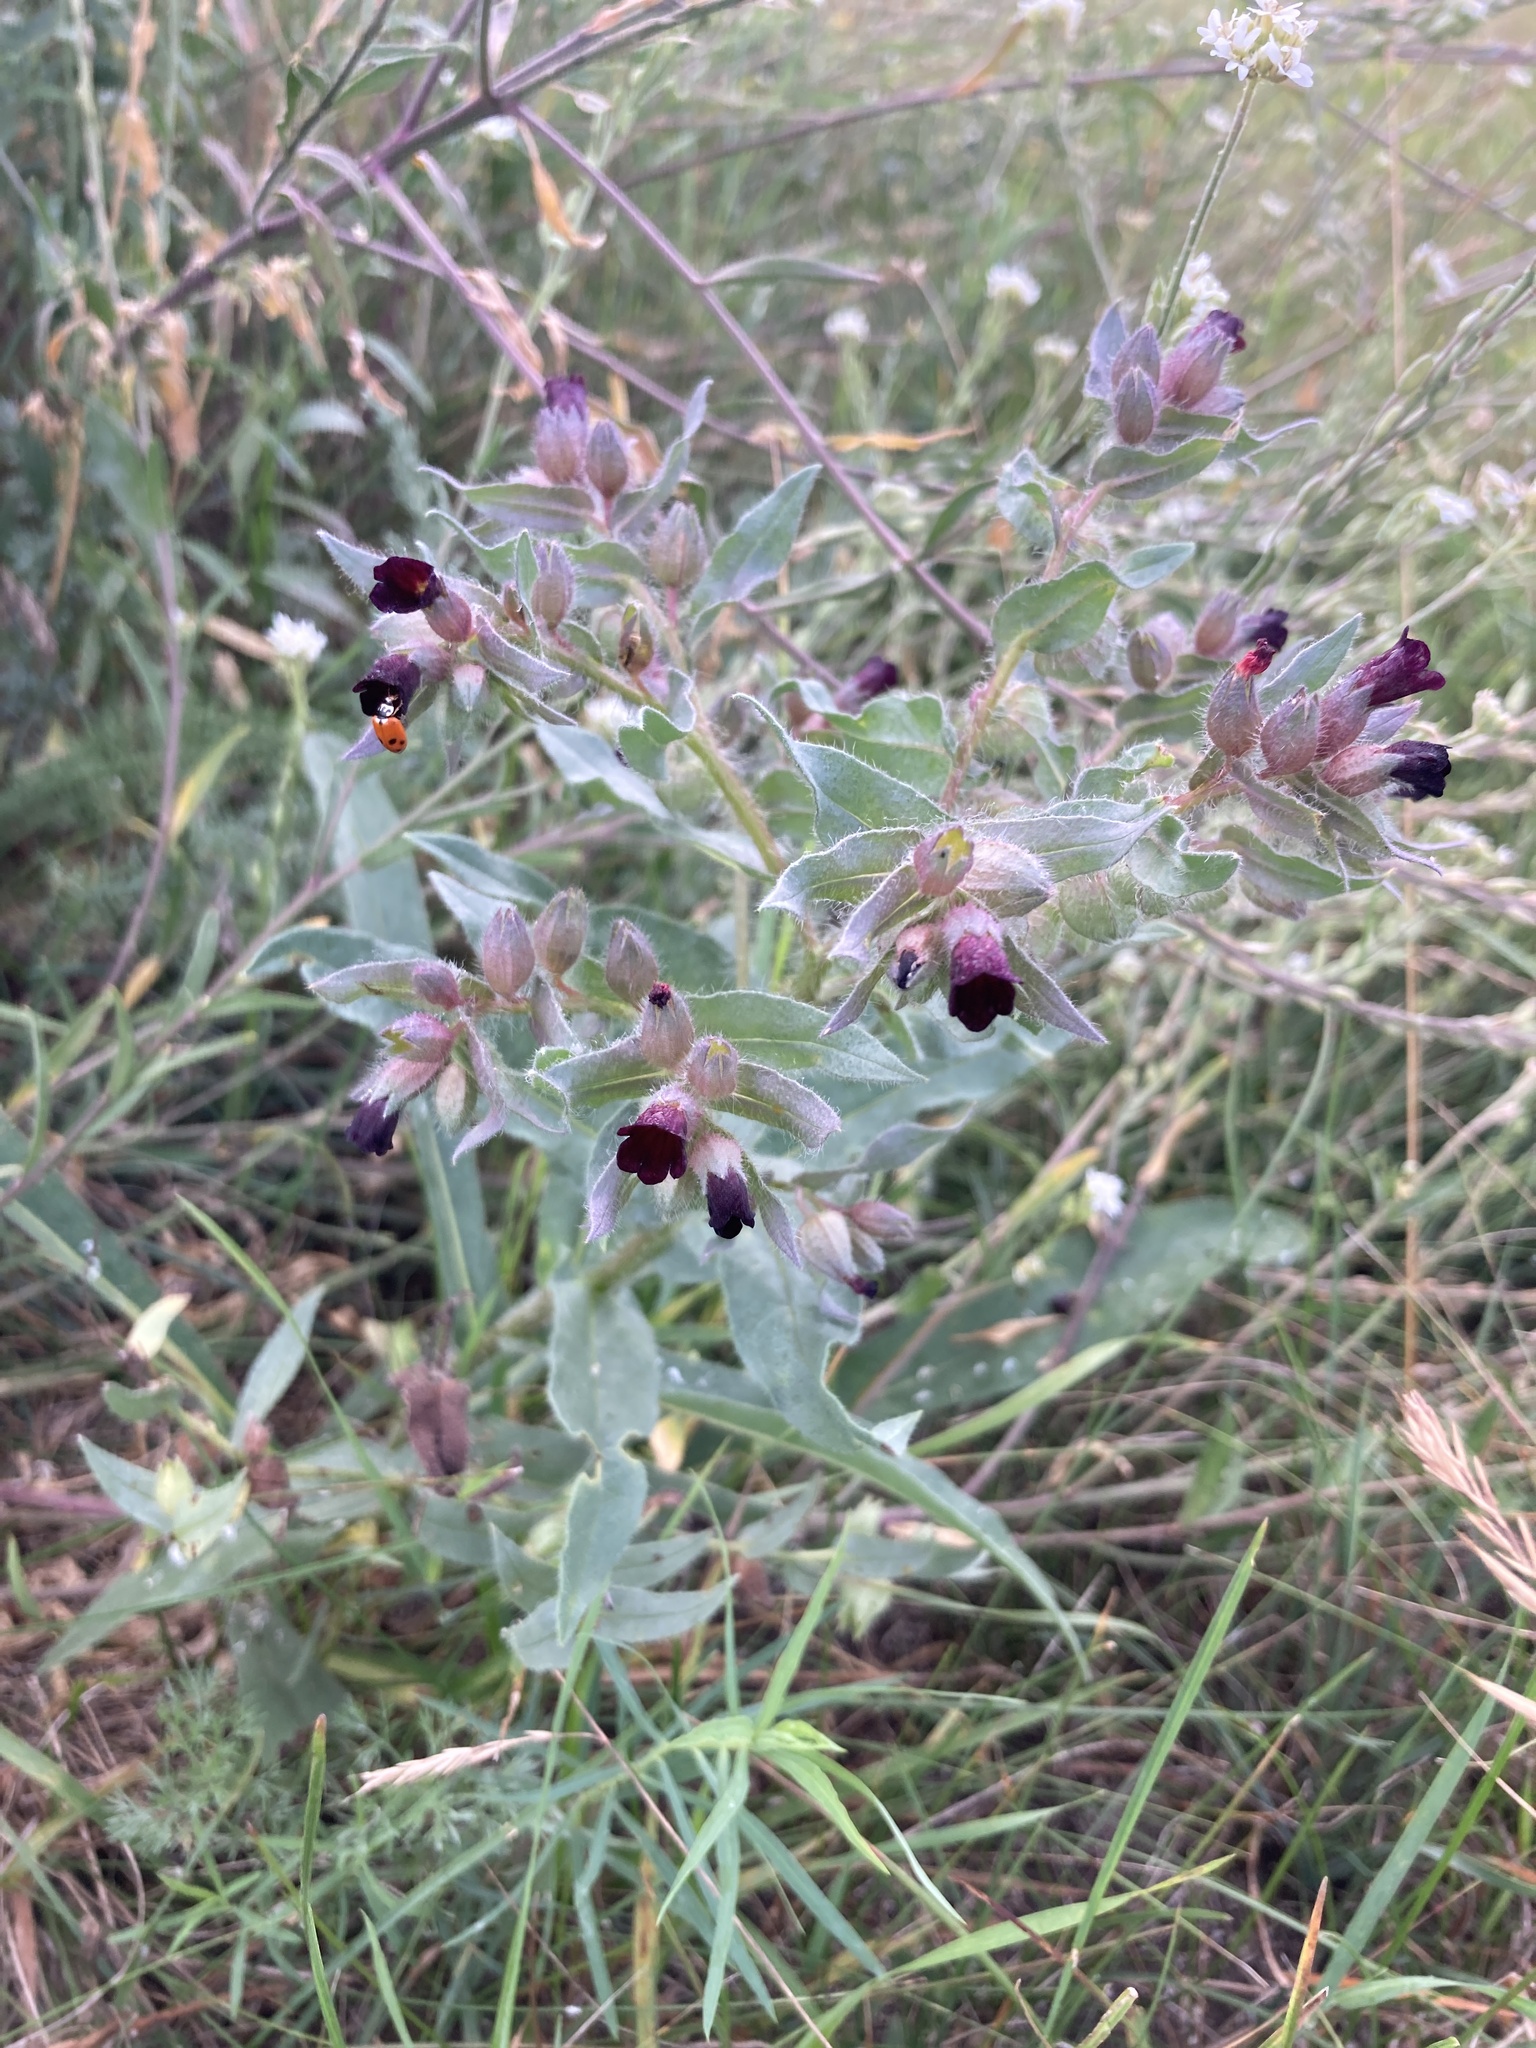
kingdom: Plantae
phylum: Tracheophyta
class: Magnoliopsida
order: Boraginales
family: Boraginaceae
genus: Nonea
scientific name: Nonea pulla
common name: Brown nonea
